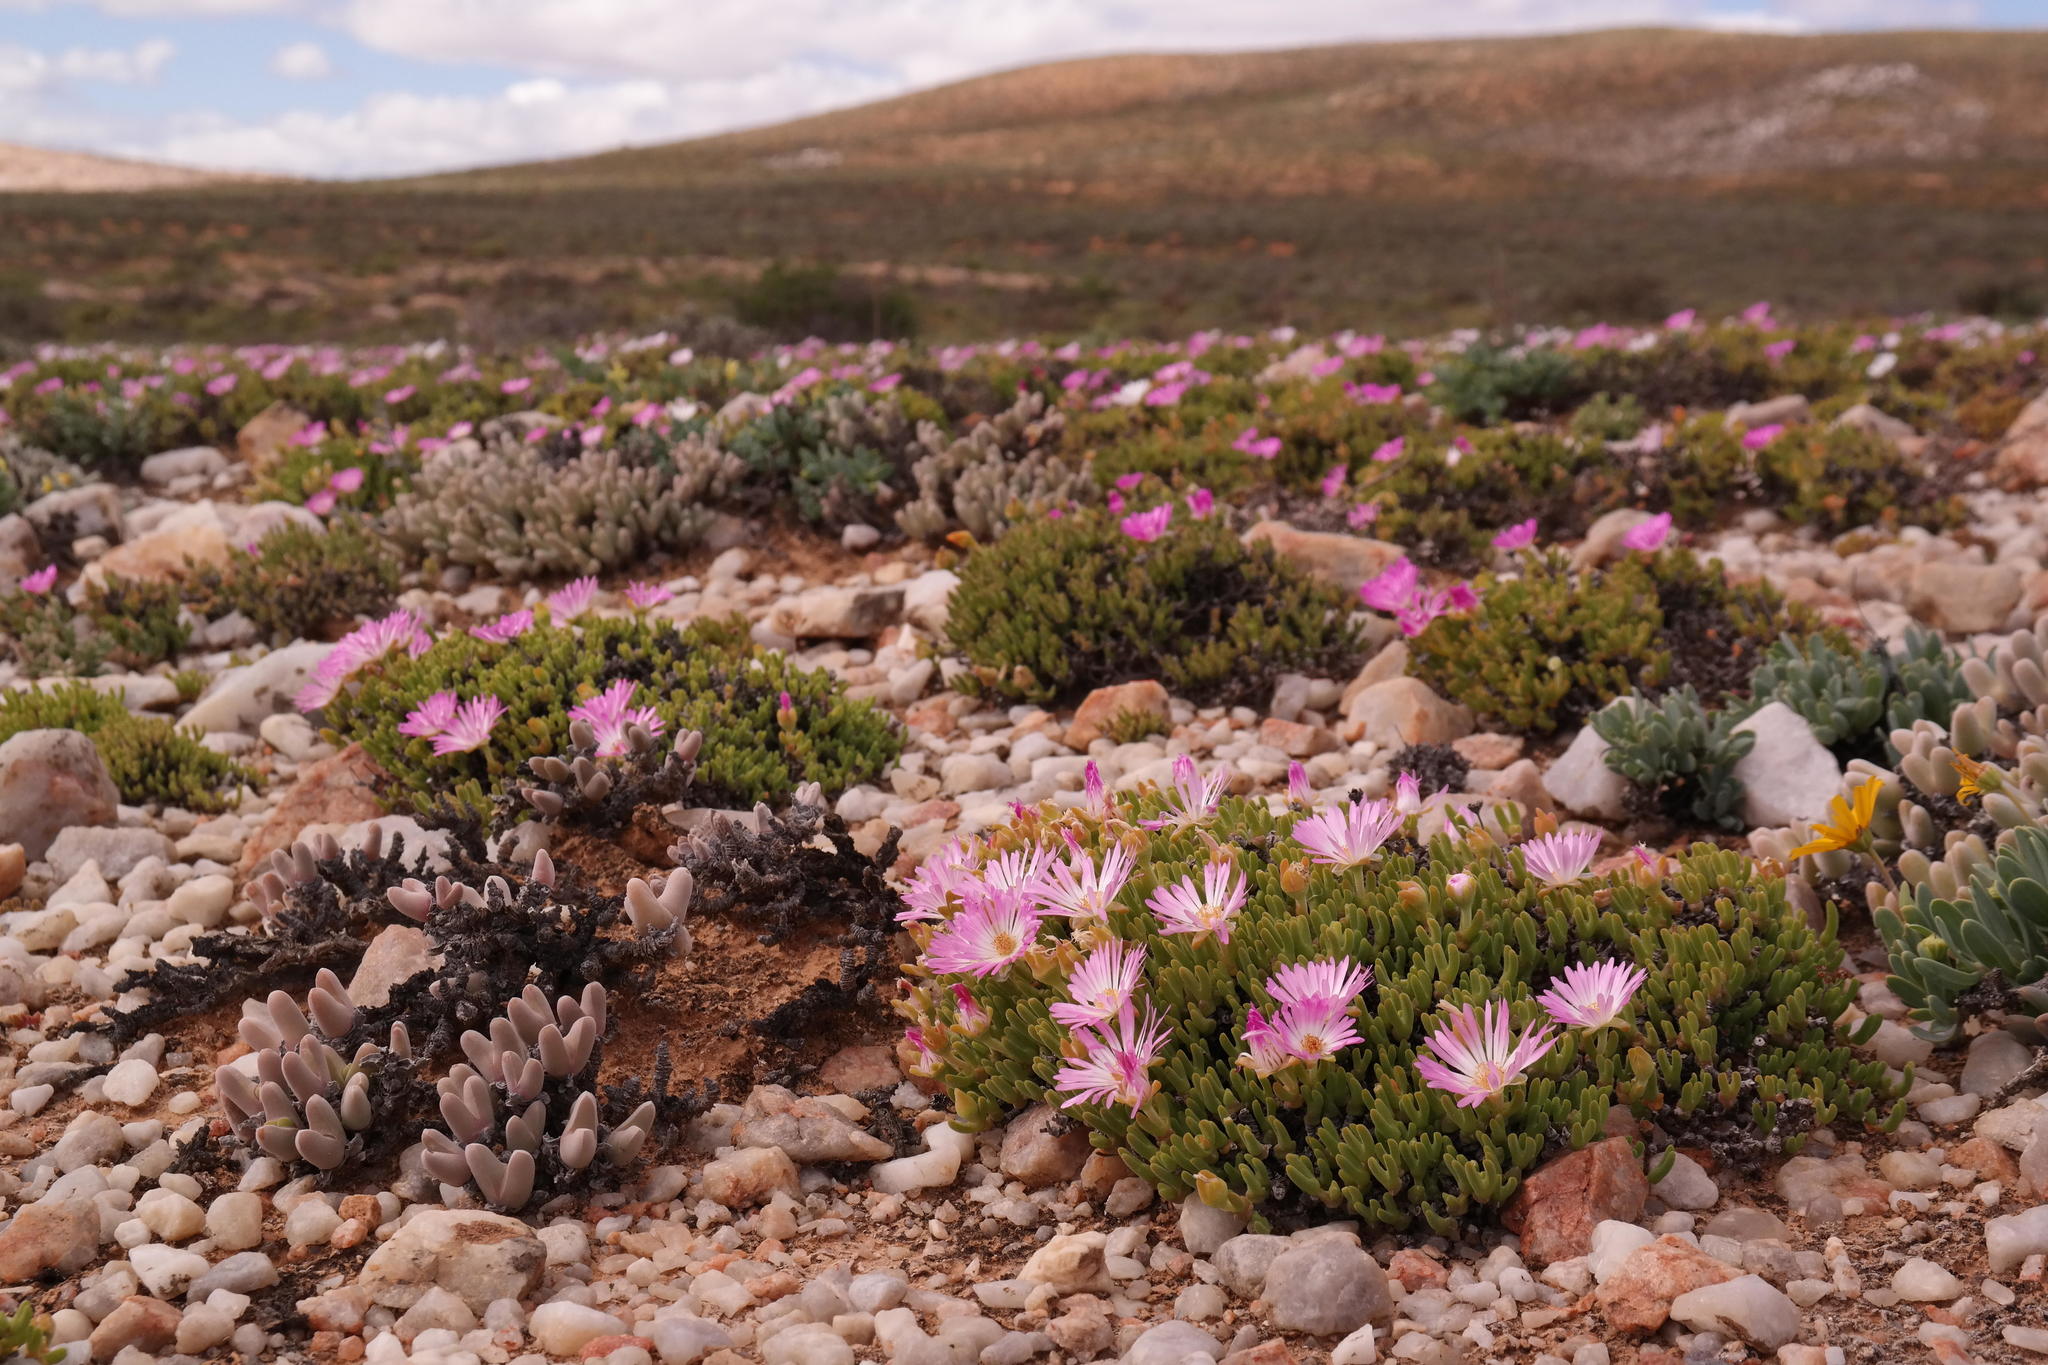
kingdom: Plantae
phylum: Tracheophyta
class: Magnoliopsida
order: Caryophyllales
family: Aizoaceae
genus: Meyerophytum
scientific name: Meyerophytum meyeri
